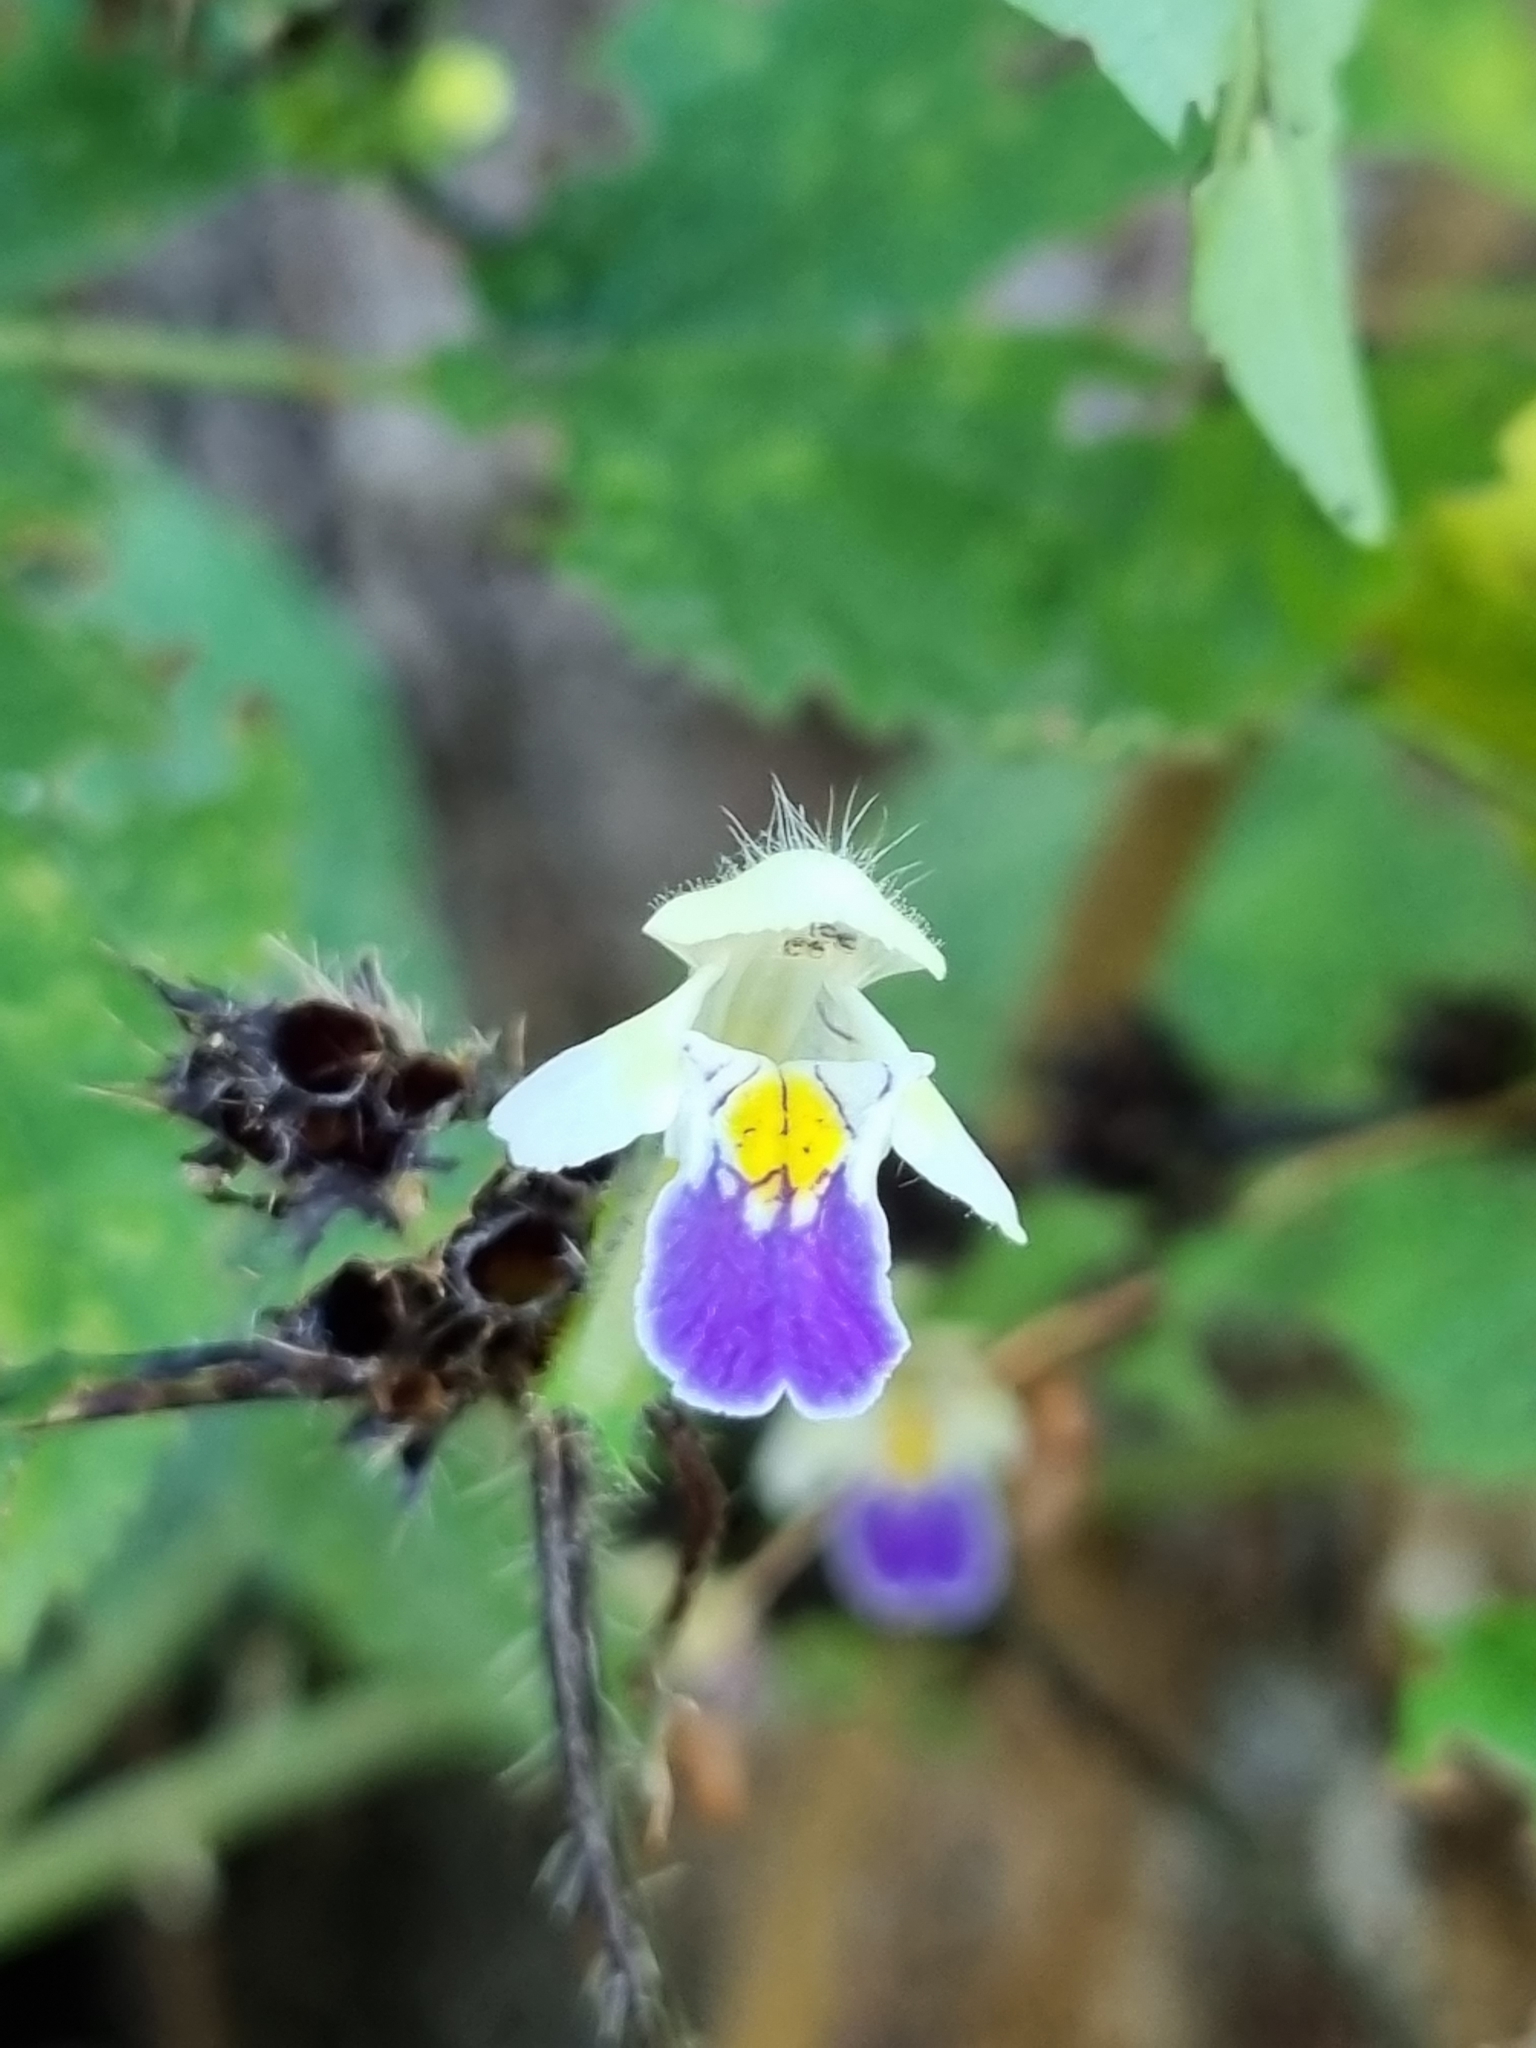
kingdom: Plantae
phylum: Tracheophyta
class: Magnoliopsida
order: Lamiales
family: Lamiaceae
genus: Galeopsis
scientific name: Galeopsis speciosa
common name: Large-flowered hemp-nettle
